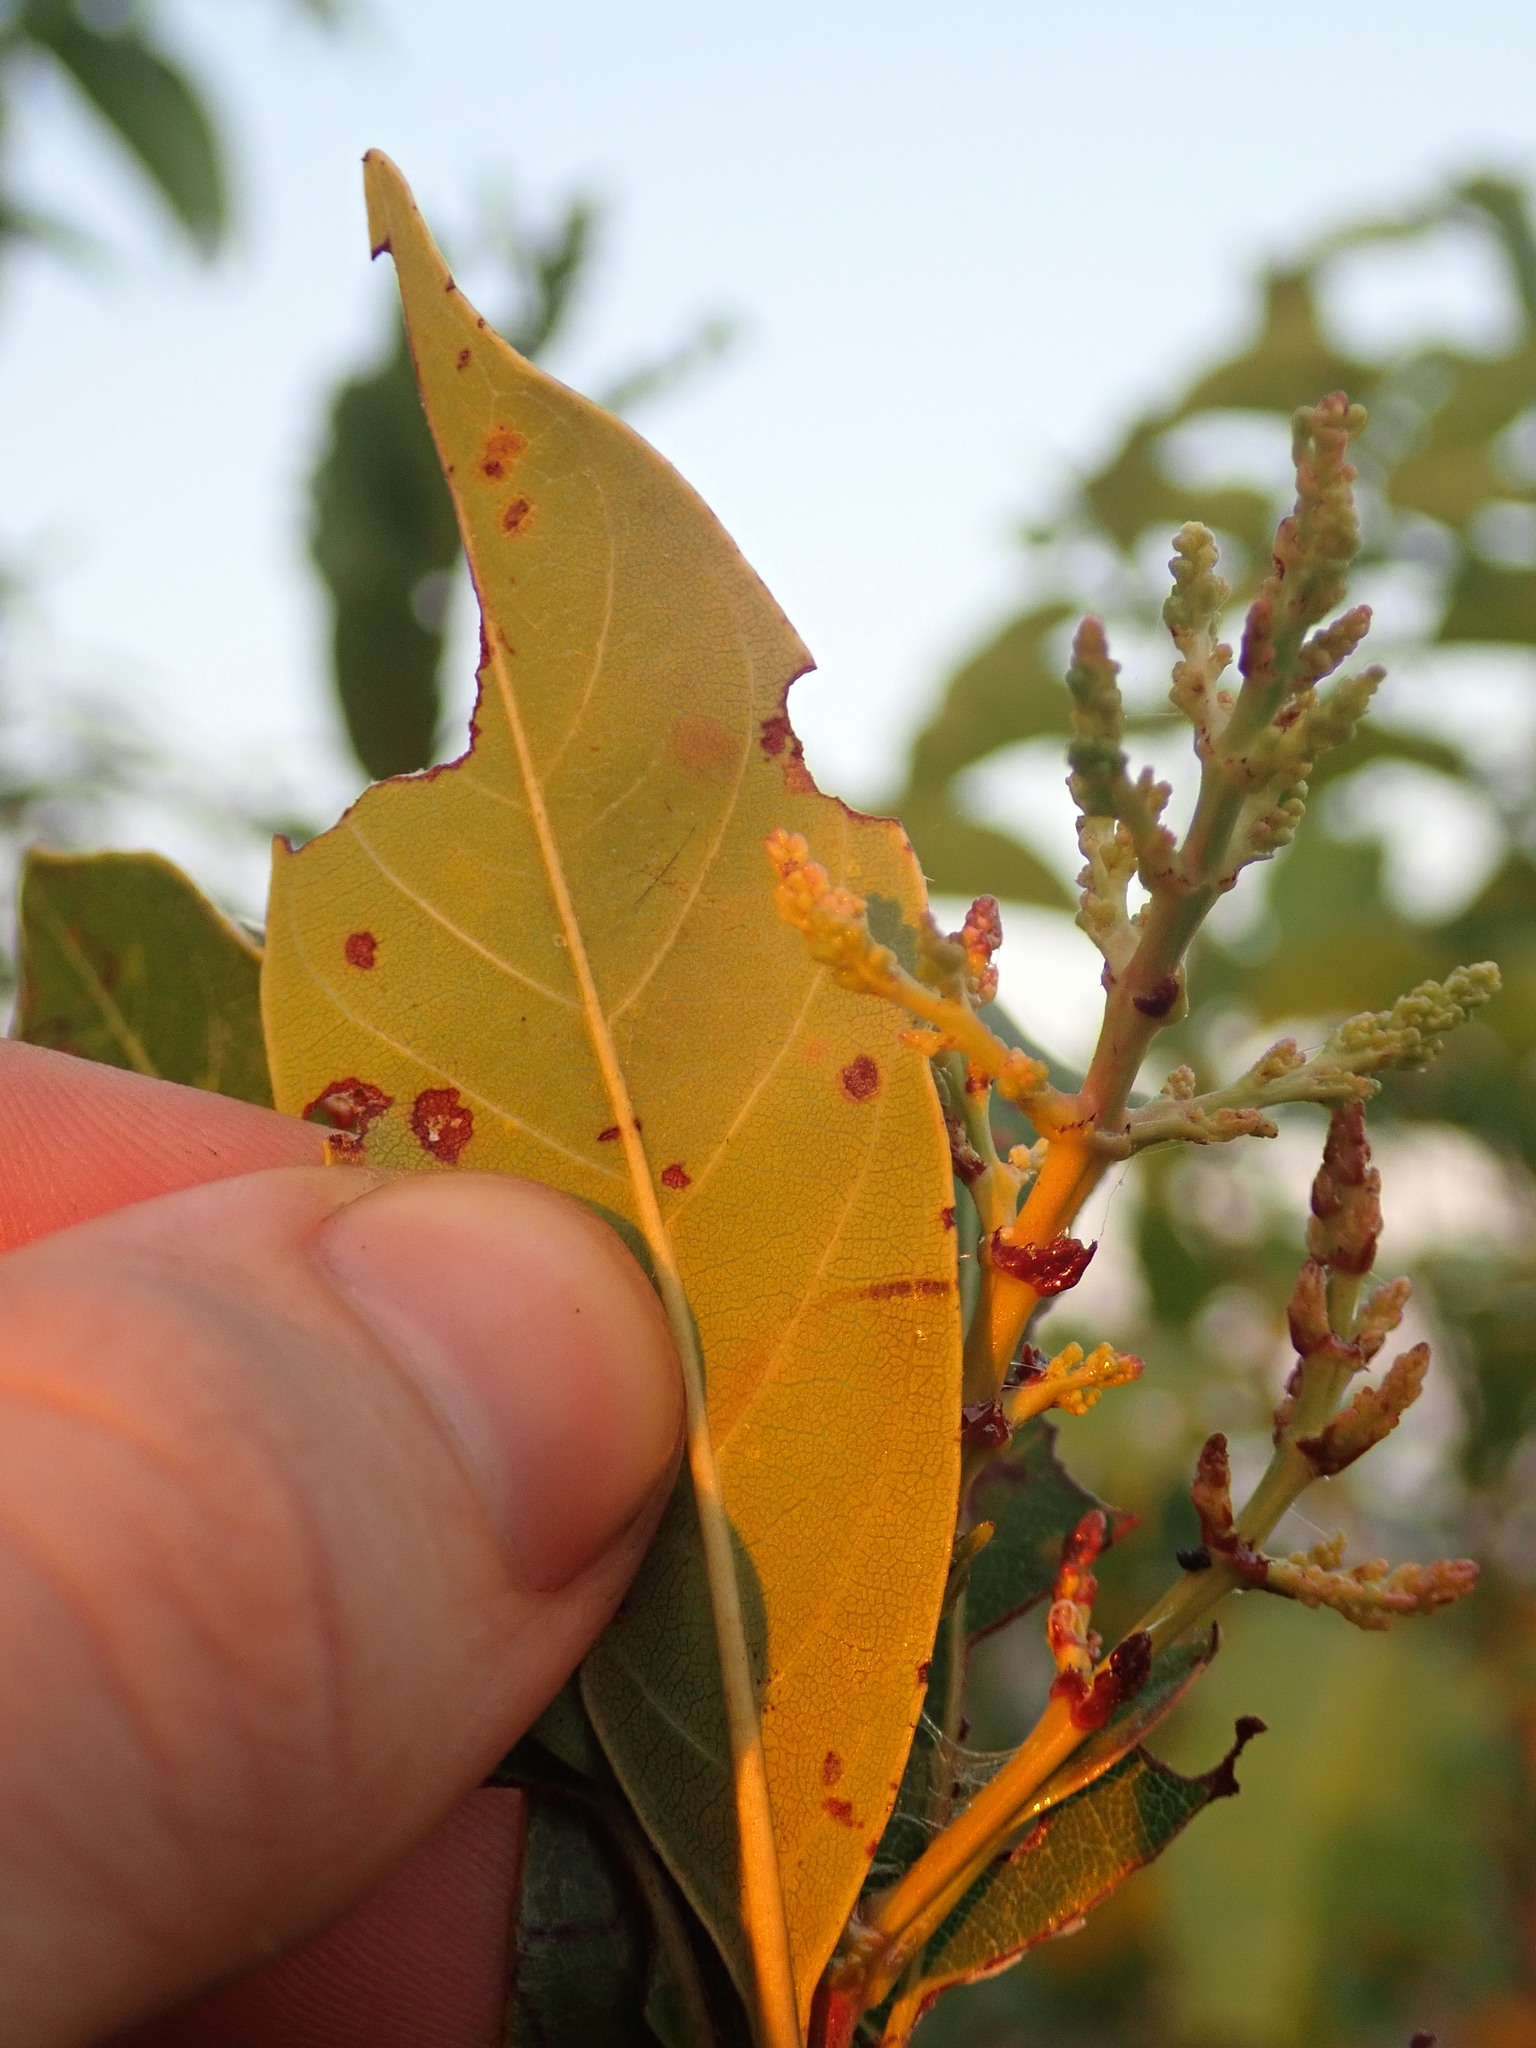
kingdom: Plantae
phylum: Tracheophyta
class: Magnoliopsida
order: Gentianales
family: Rubiaceae
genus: Wendlandia
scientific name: Wendlandia glabrata
